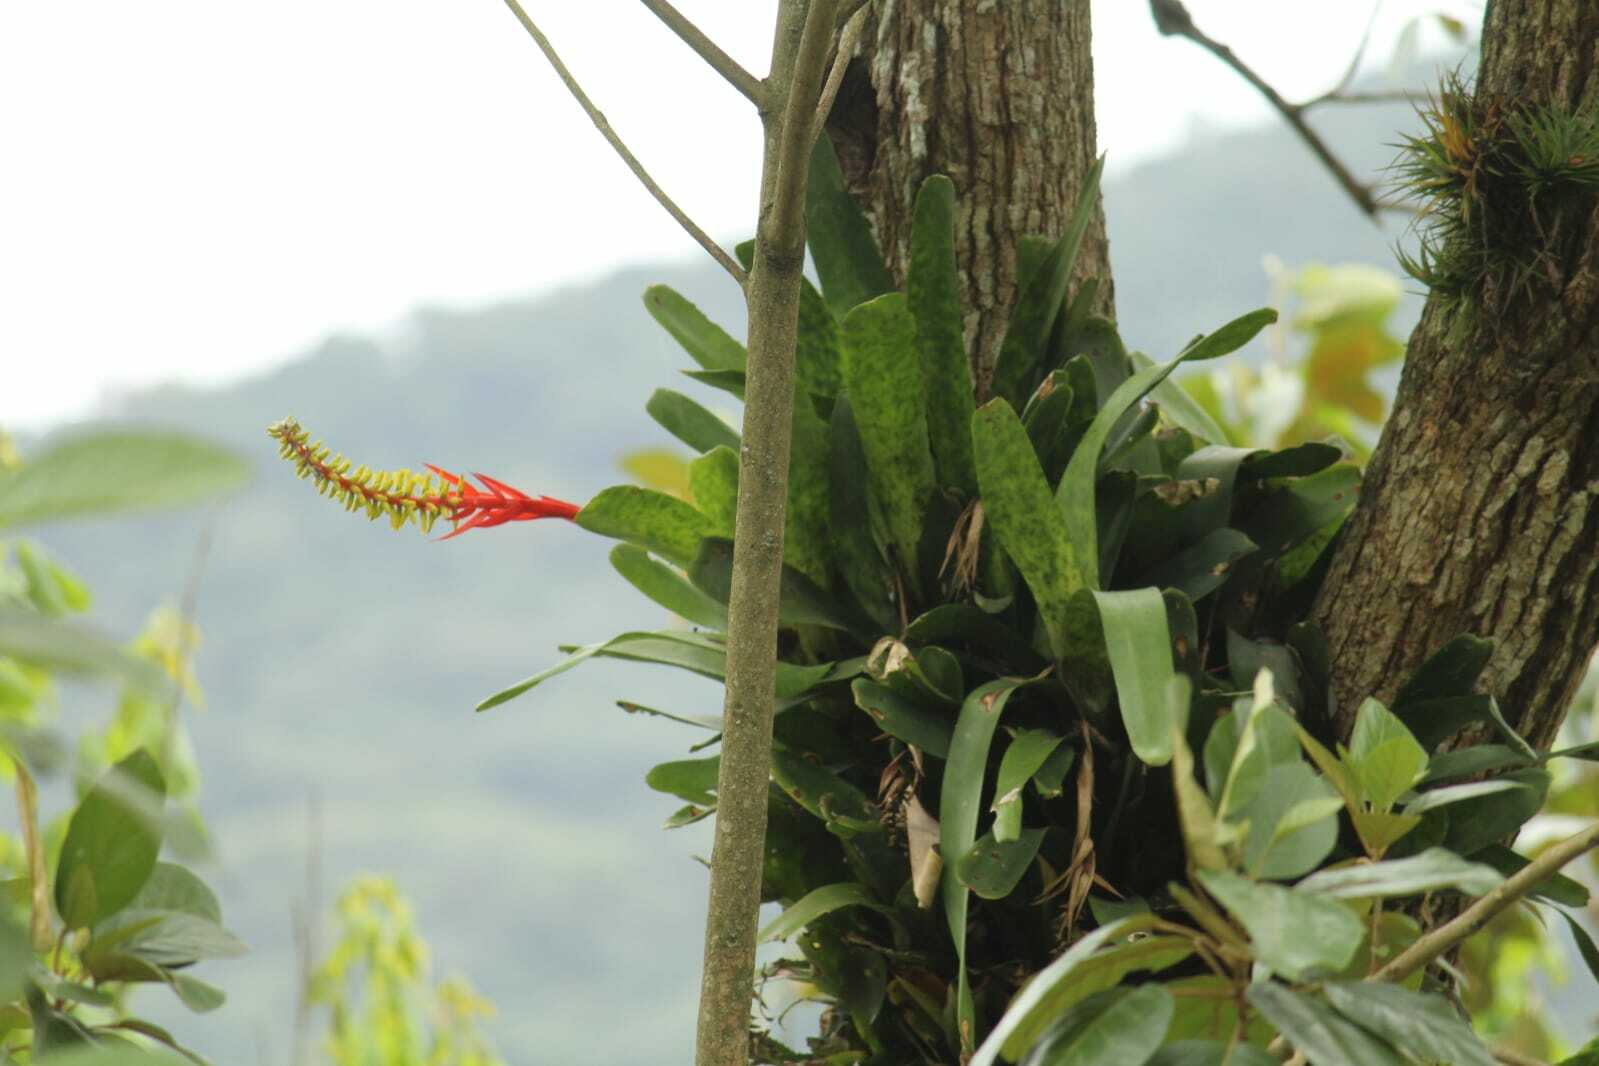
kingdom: Plantae
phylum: Tracheophyta
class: Liliopsida
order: Poales
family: Bromeliaceae
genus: Aechmea
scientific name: Aechmea nudicaulis
